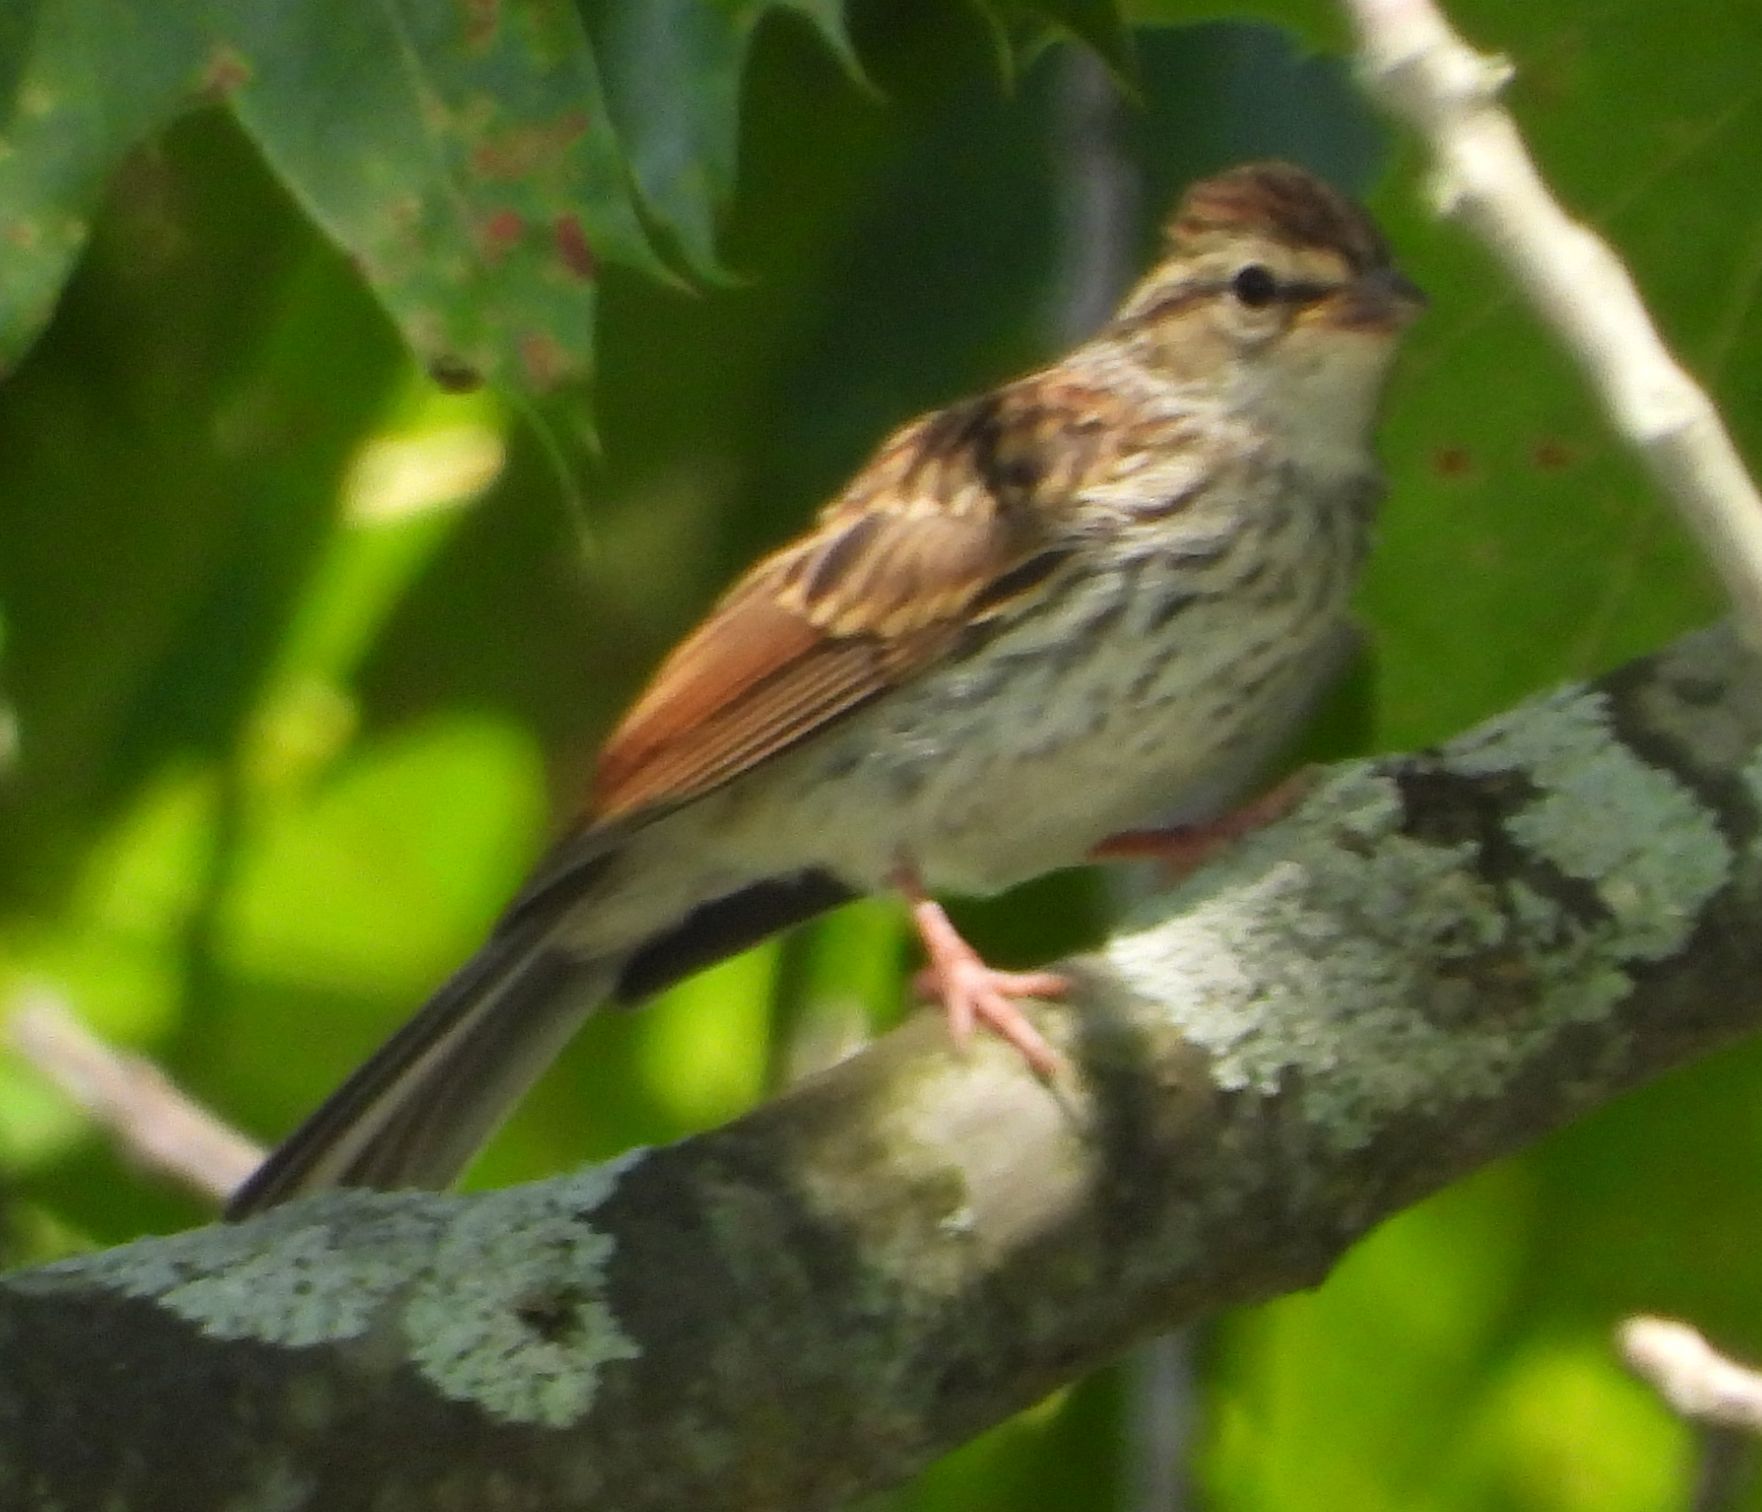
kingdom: Animalia
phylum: Chordata
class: Aves
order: Passeriformes
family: Passerellidae
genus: Spizella
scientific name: Spizella passerina
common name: Chipping sparrow
